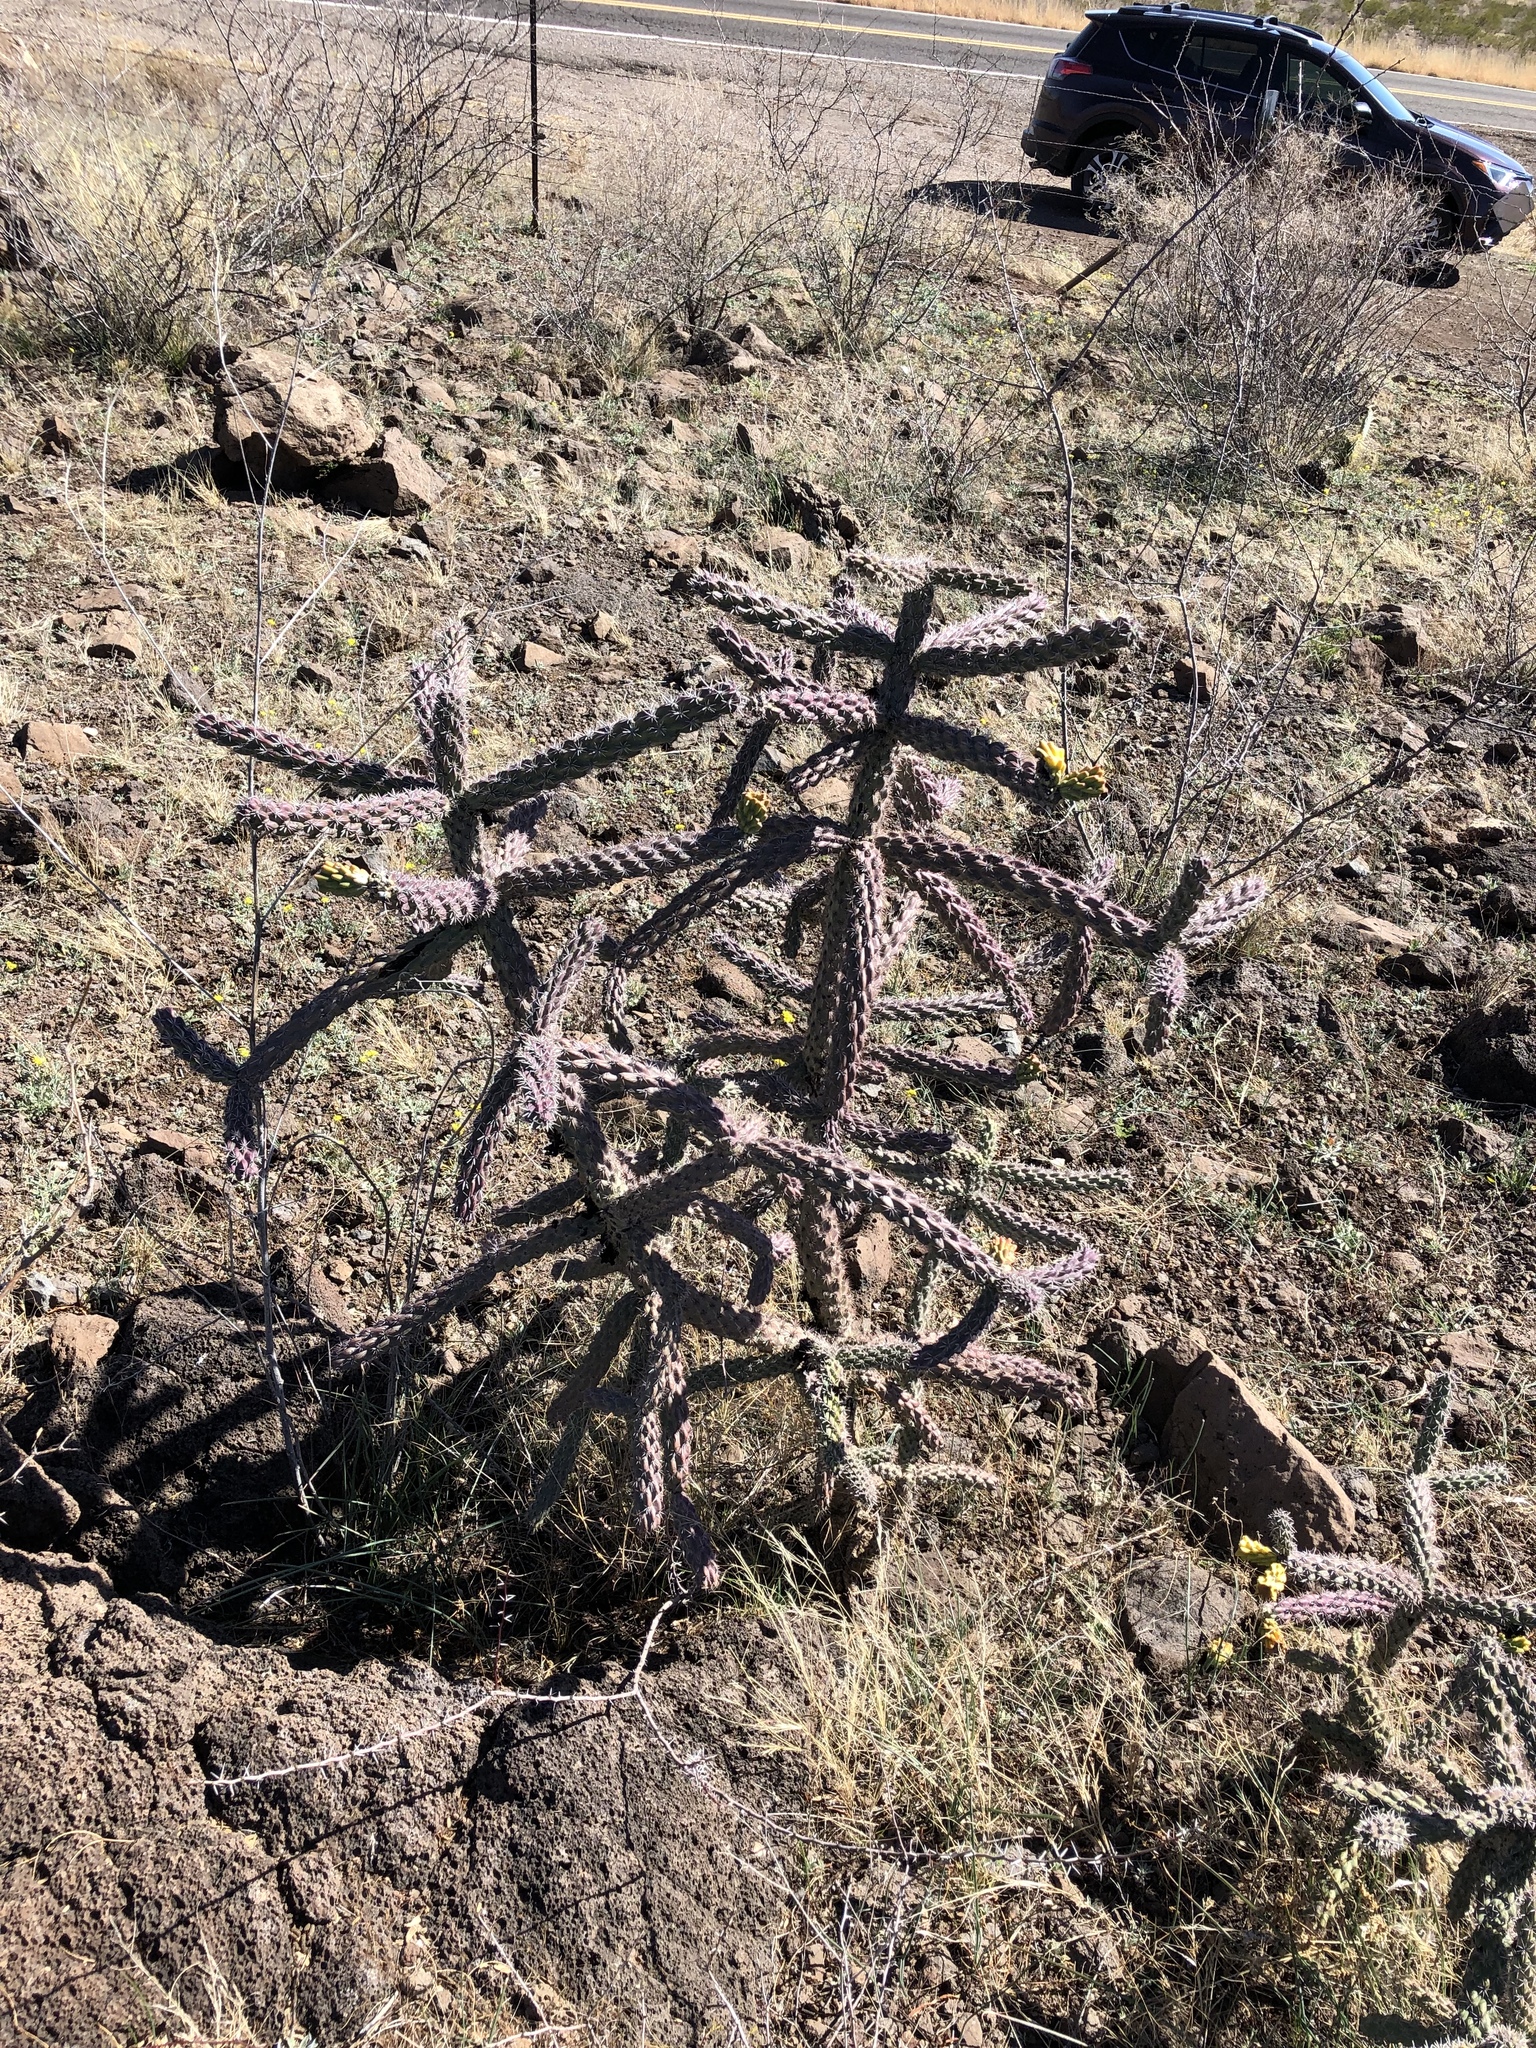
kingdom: Plantae
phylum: Tracheophyta
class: Magnoliopsida
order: Caryophyllales
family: Cactaceae
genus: Cylindropuntia
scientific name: Cylindropuntia imbricata
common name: Candelabrum cactus
